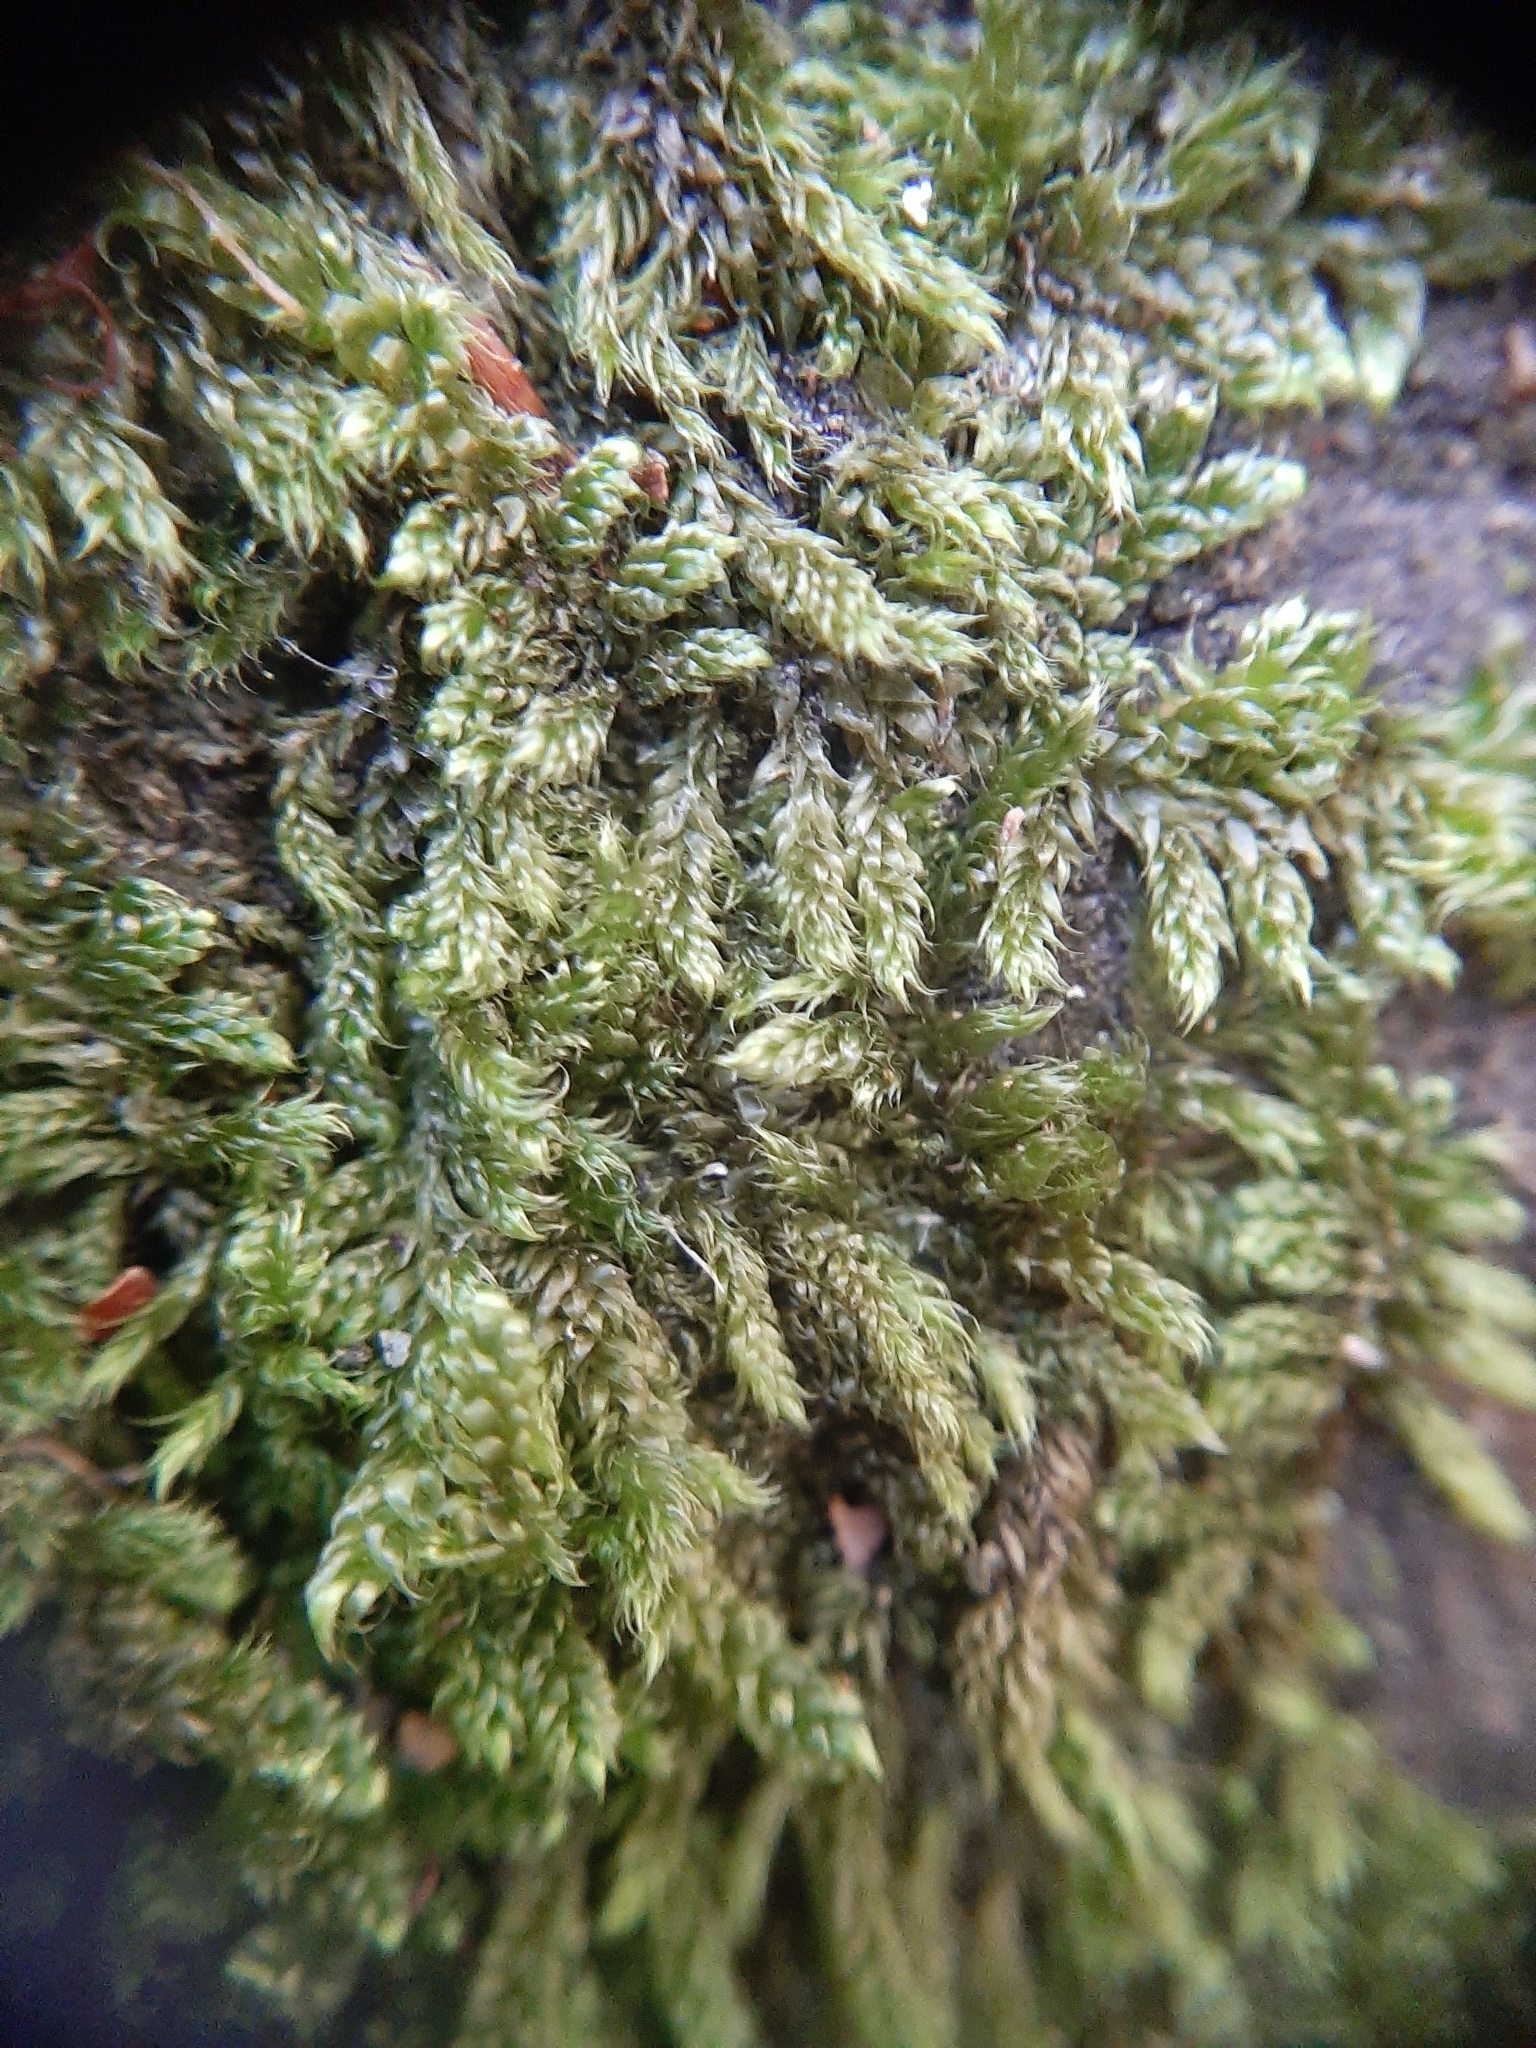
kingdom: Plantae
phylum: Bryophyta
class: Bryopsida
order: Hypnales
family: Hypnaceae
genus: Hypnum
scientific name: Hypnum cupressiforme
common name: Cypress-leaved plait-moss
